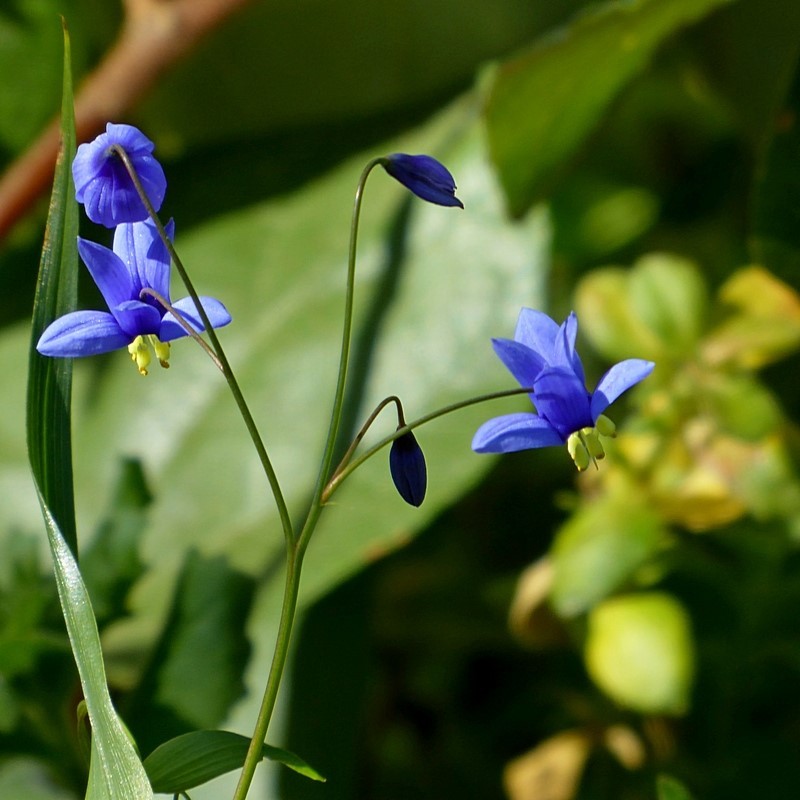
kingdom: Plantae
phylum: Tracheophyta
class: Liliopsida
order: Asparagales
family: Asphodelaceae
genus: Stypandra
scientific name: Stypandra glauca
